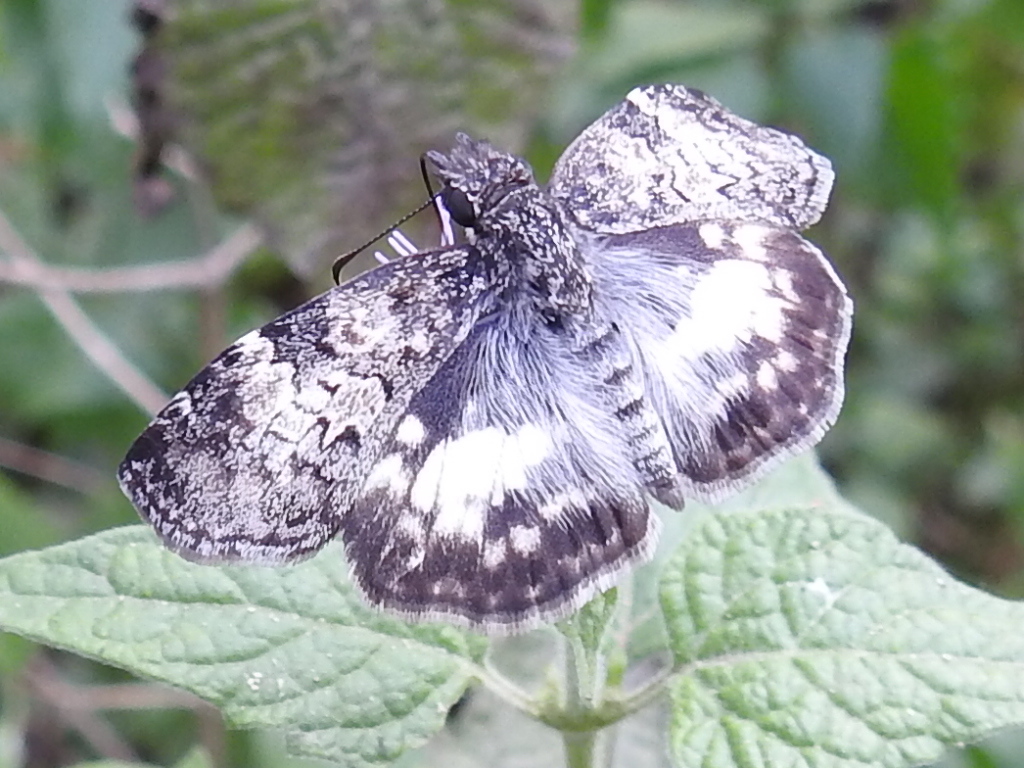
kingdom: Animalia
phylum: Arthropoda
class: Insecta
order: Lepidoptera
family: Hesperiidae
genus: Chiothion
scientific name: Chiothion georgina
